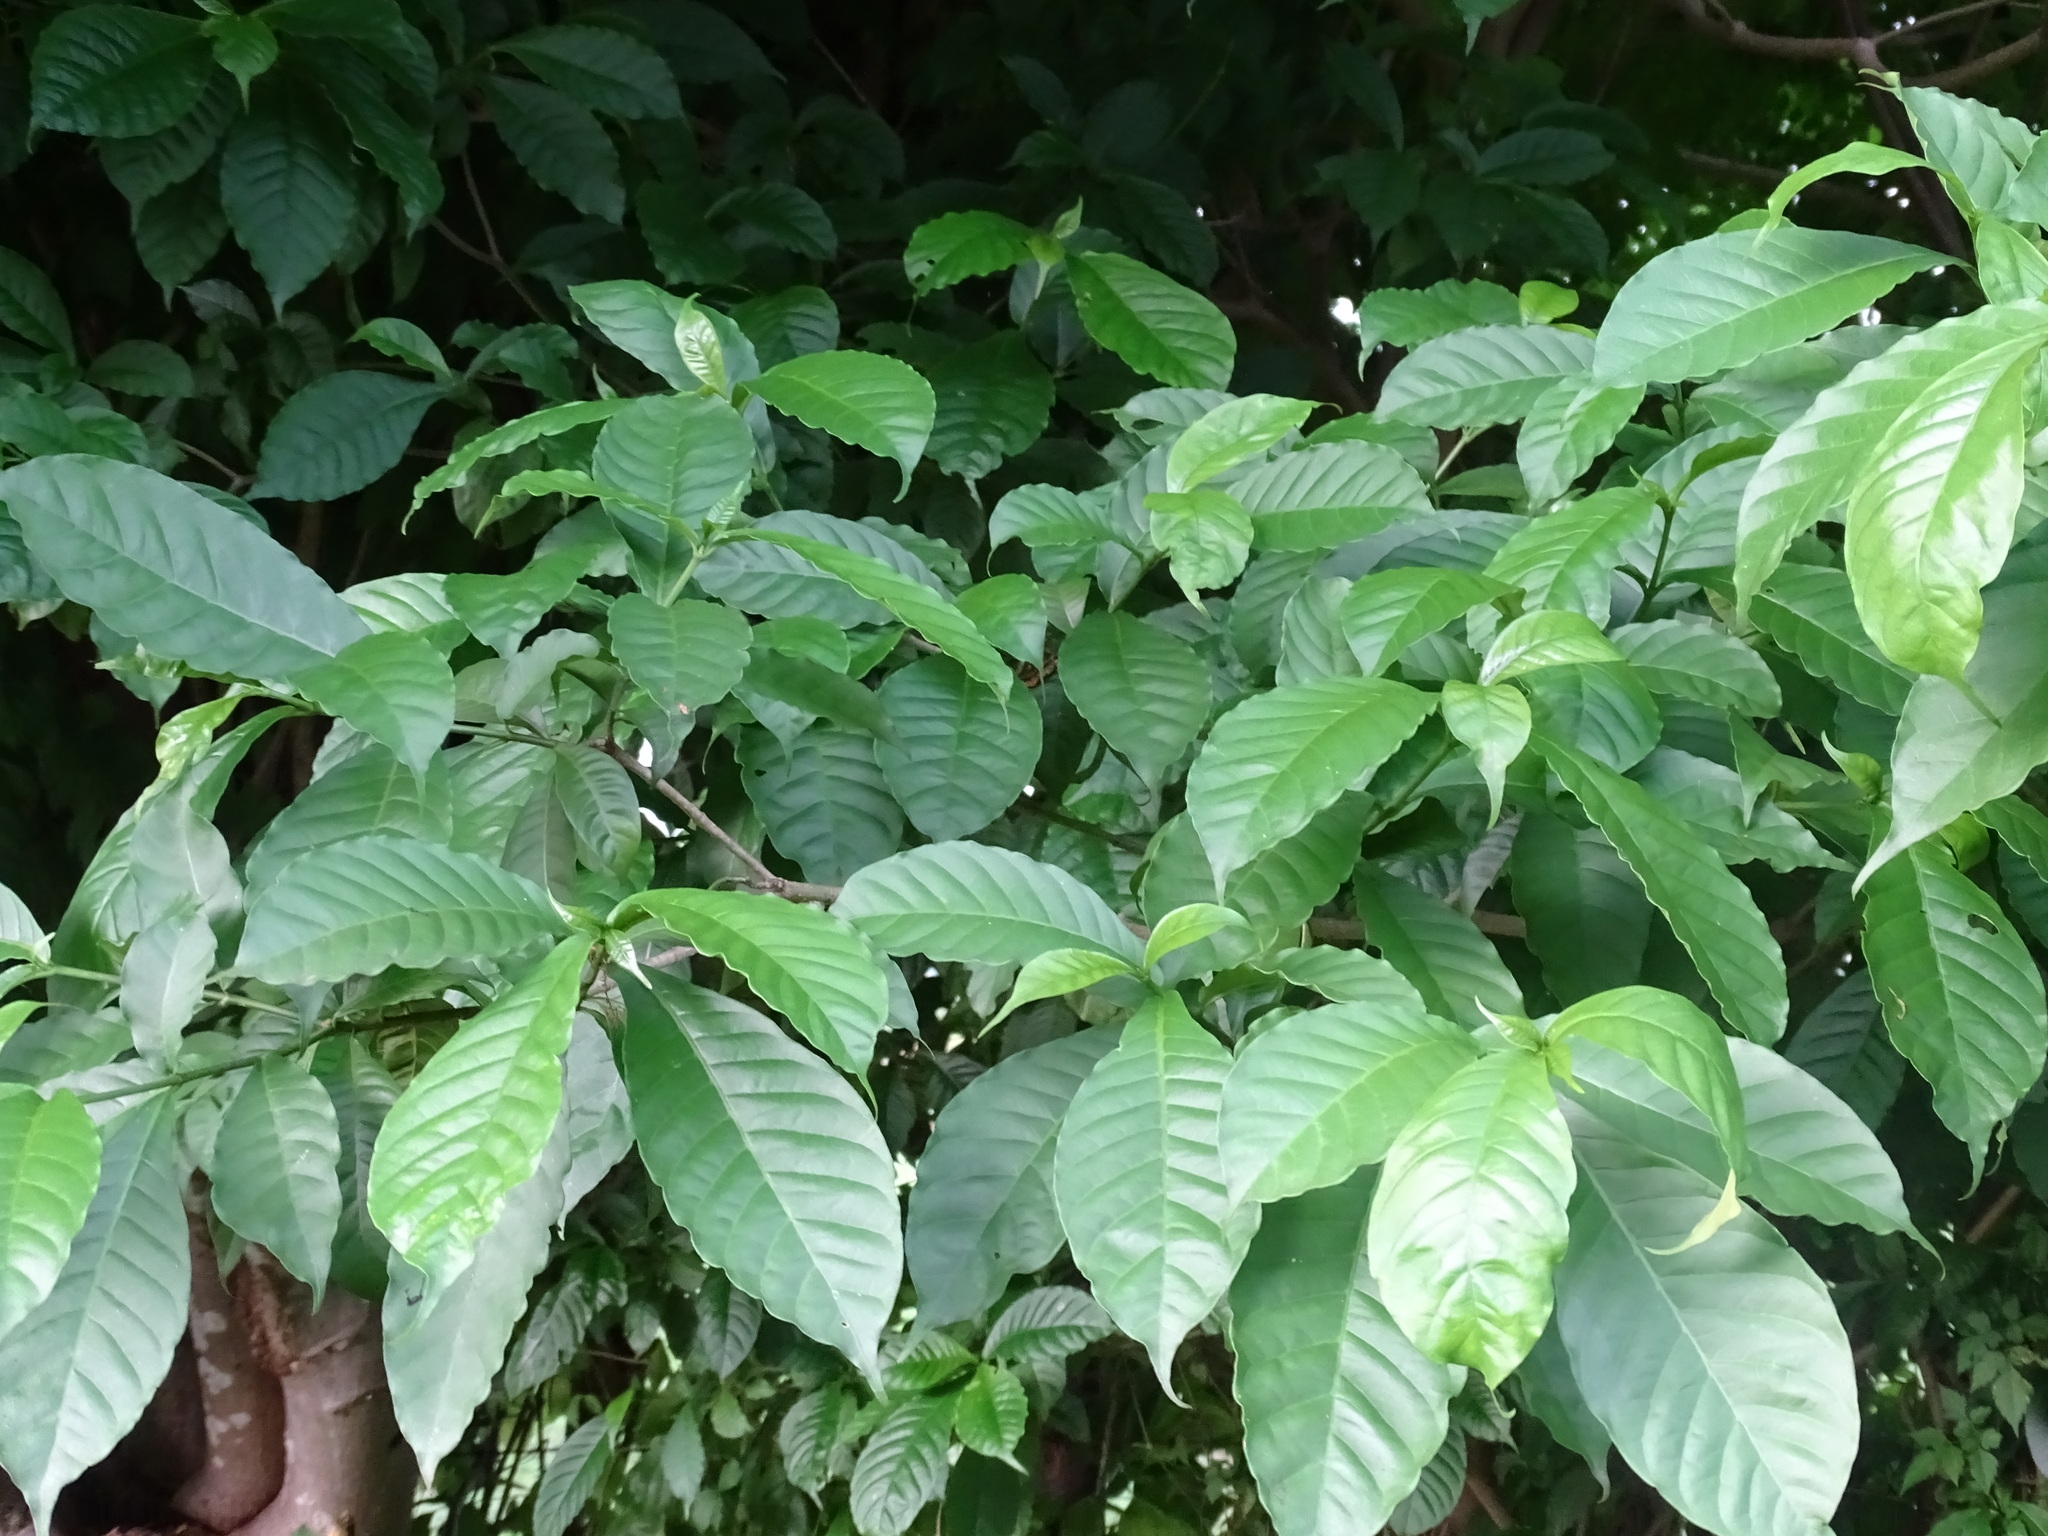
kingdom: Plantae
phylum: Tracheophyta
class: Magnoliopsida
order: Gentianales
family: Apocynaceae
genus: Tabernaemontana
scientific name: Tabernaemontana donnell-smithii
